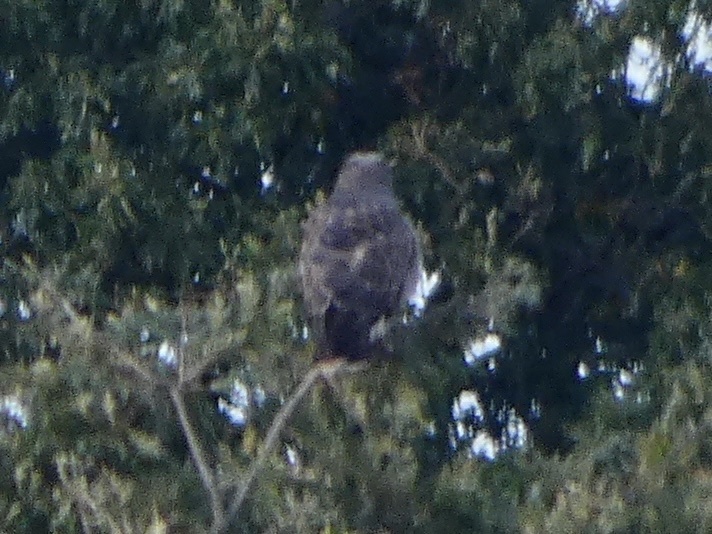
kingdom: Animalia
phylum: Chordata
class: Aves
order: Accipitriformes
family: Accipitridae
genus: Buteo
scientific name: Buteo buteo
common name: Common buzzard
